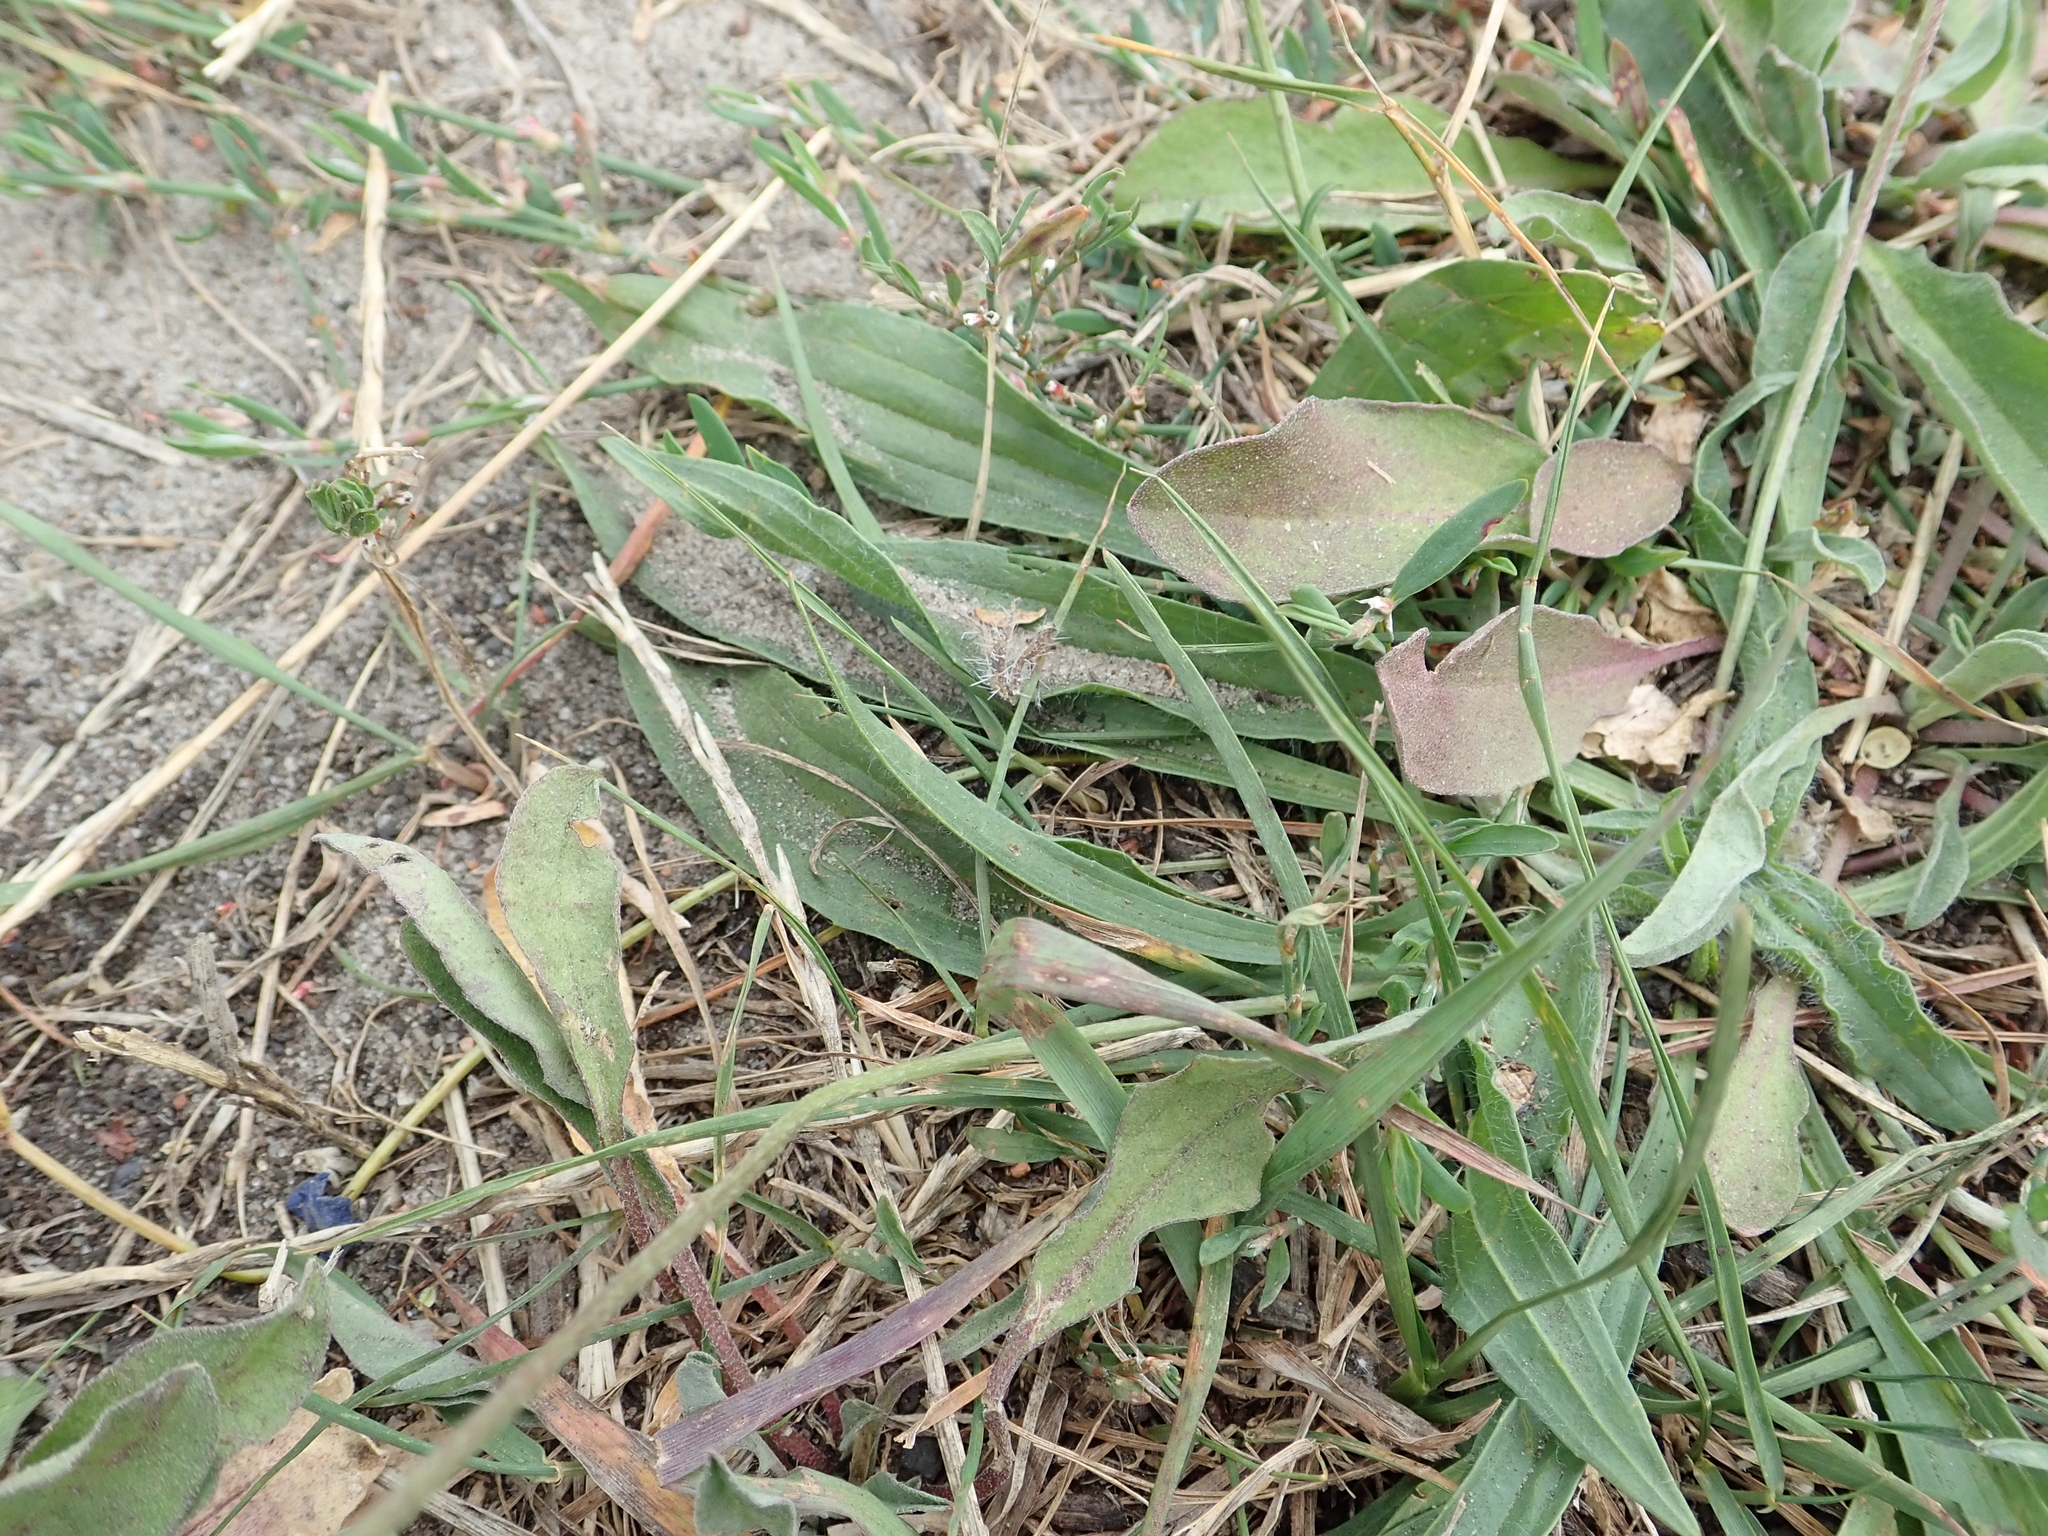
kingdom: Plantae
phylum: Tracheophyta
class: Magnoliopsida
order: Lamiales
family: Plantaginaceae
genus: Plantago
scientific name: Plantago lanceolata
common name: Ribwort plantain
